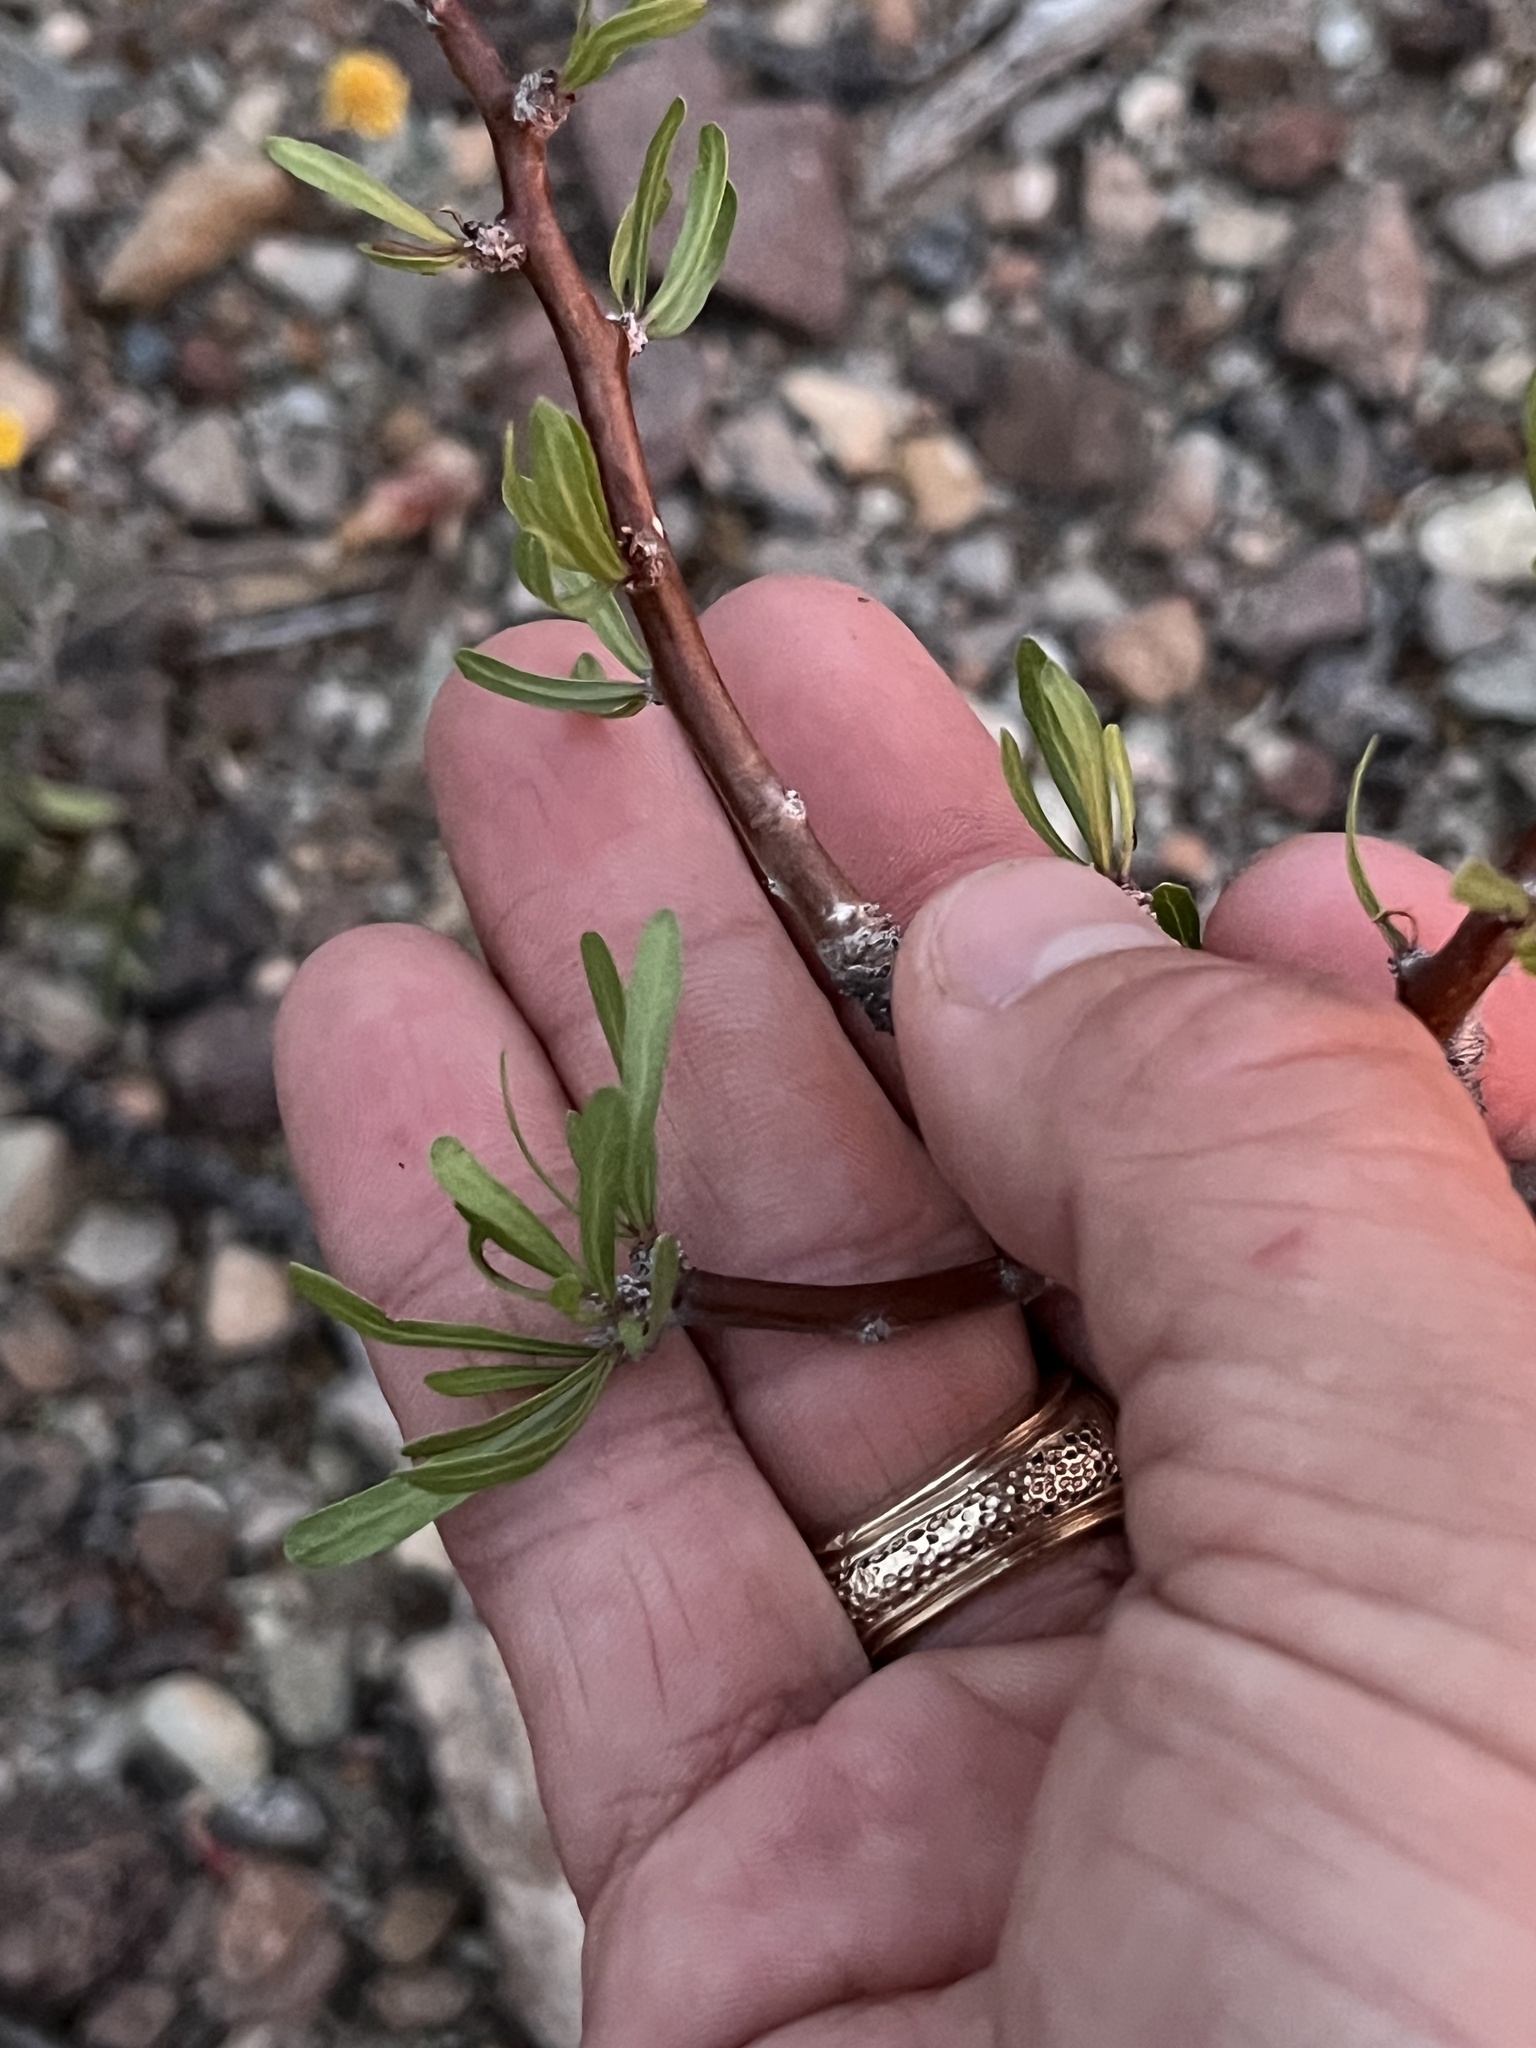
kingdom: Plantae
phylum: Tracheophyta
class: Magnoliopsida
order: Malpighiales
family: Euphorbiaceae
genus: Jatropha
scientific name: Jatropha dioica
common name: Leatherstem
